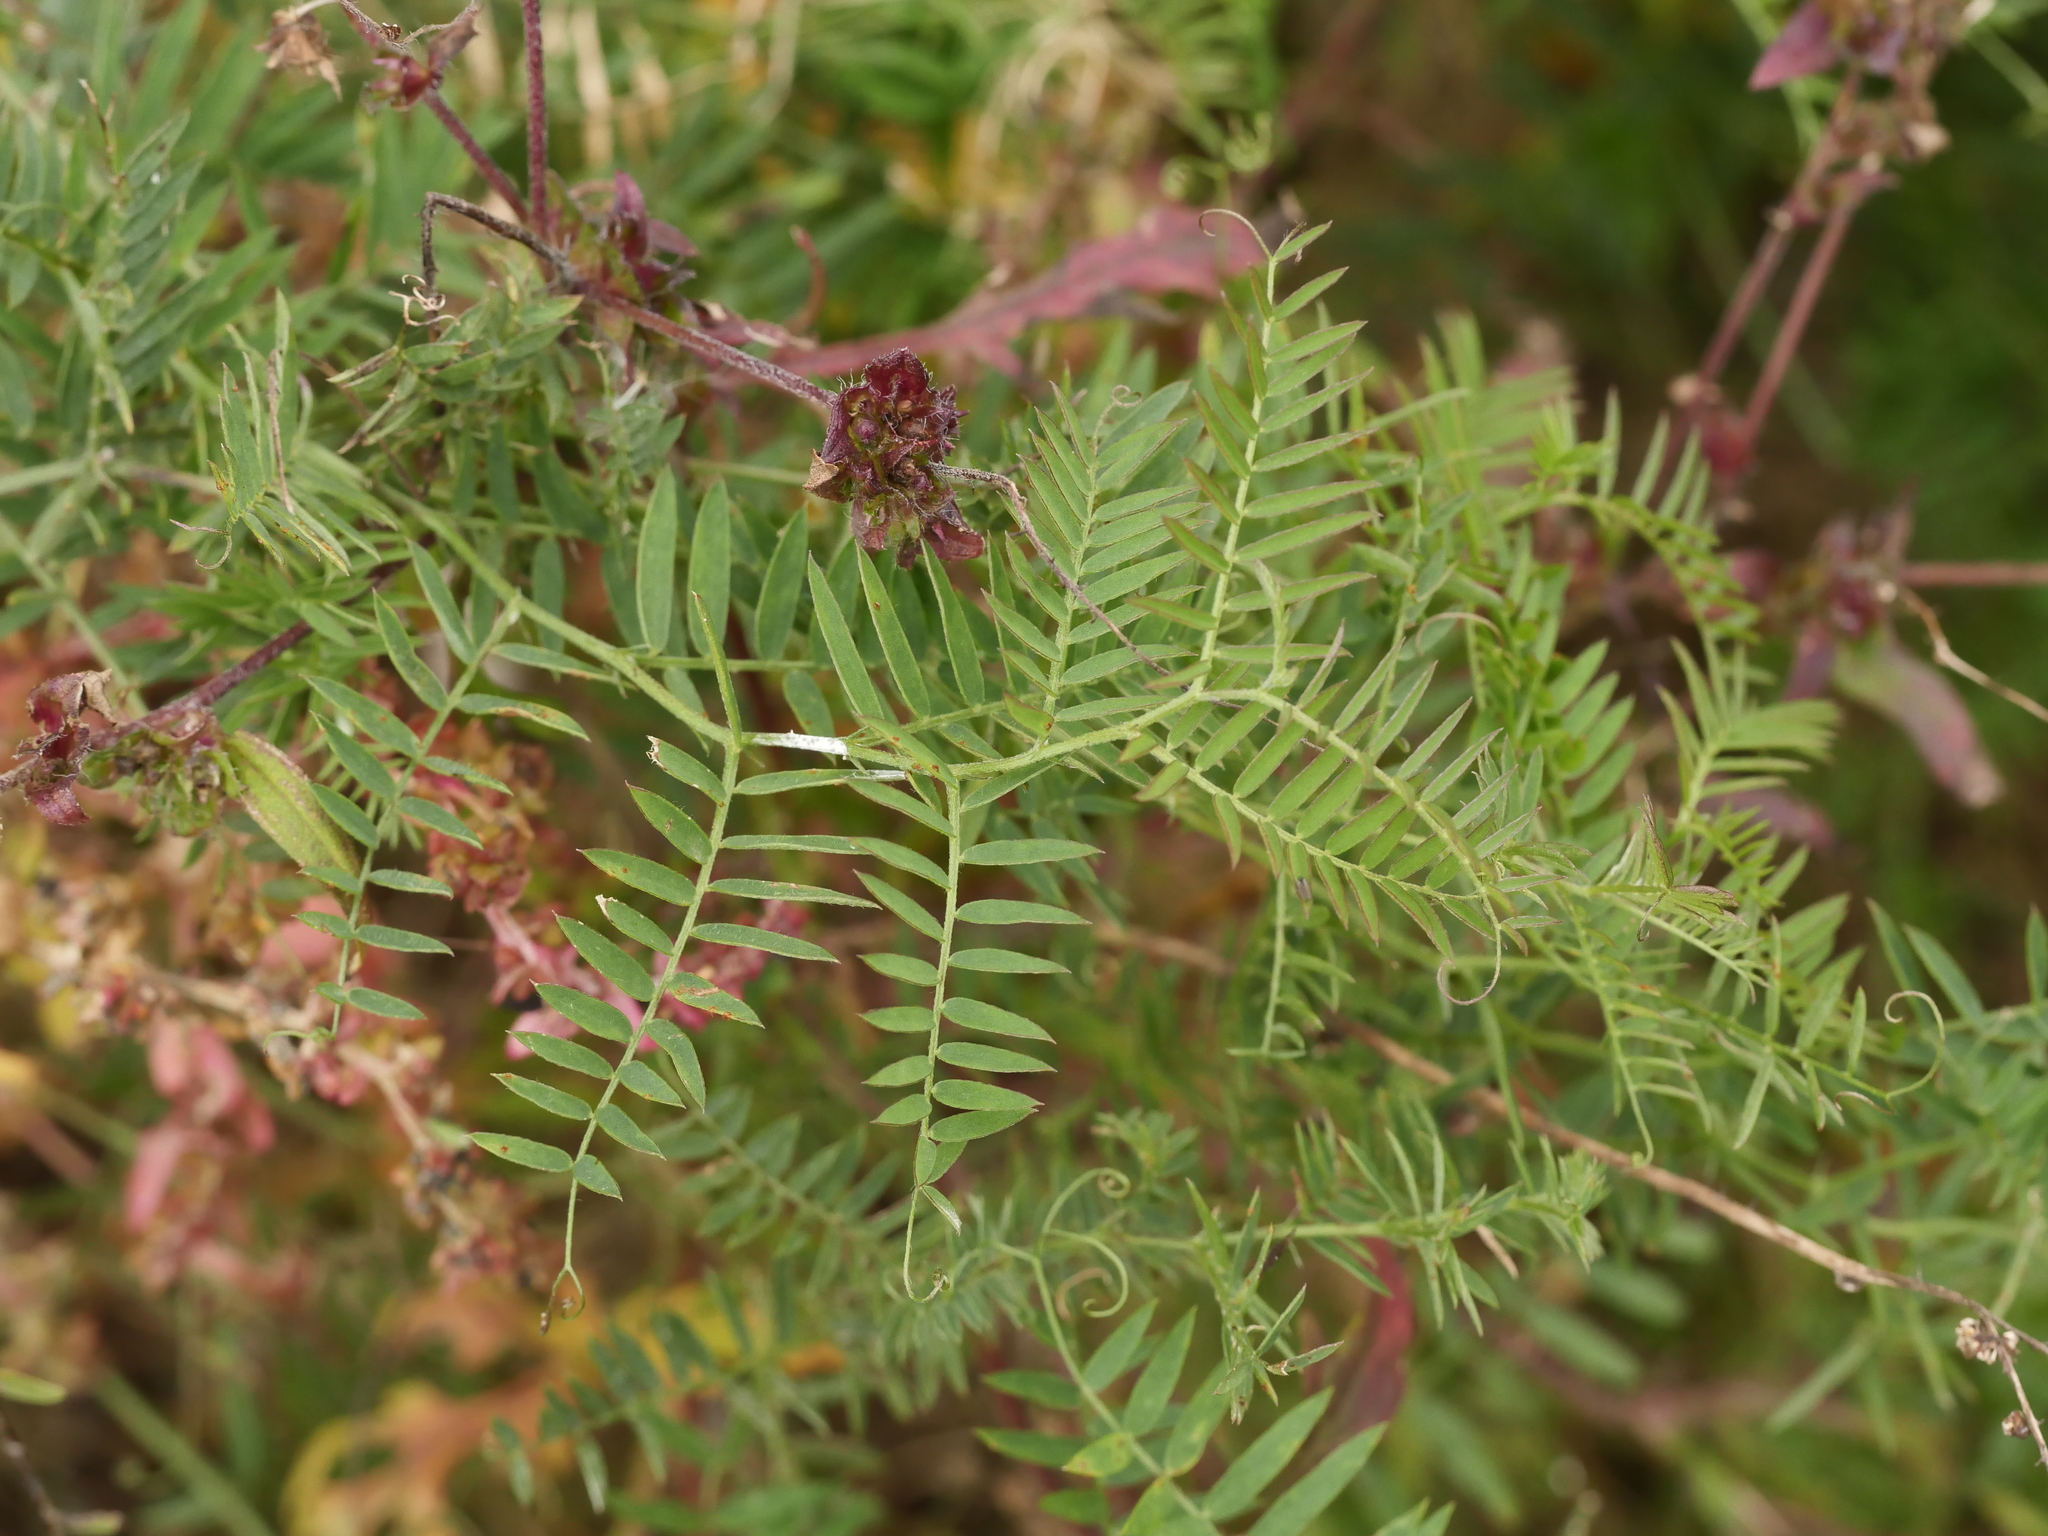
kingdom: Plantae
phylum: Tracheophyta
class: Magnoliopsida
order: Fabales
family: Fabaceae
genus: Vicia
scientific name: Vicia cracca
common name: Bird vetch
